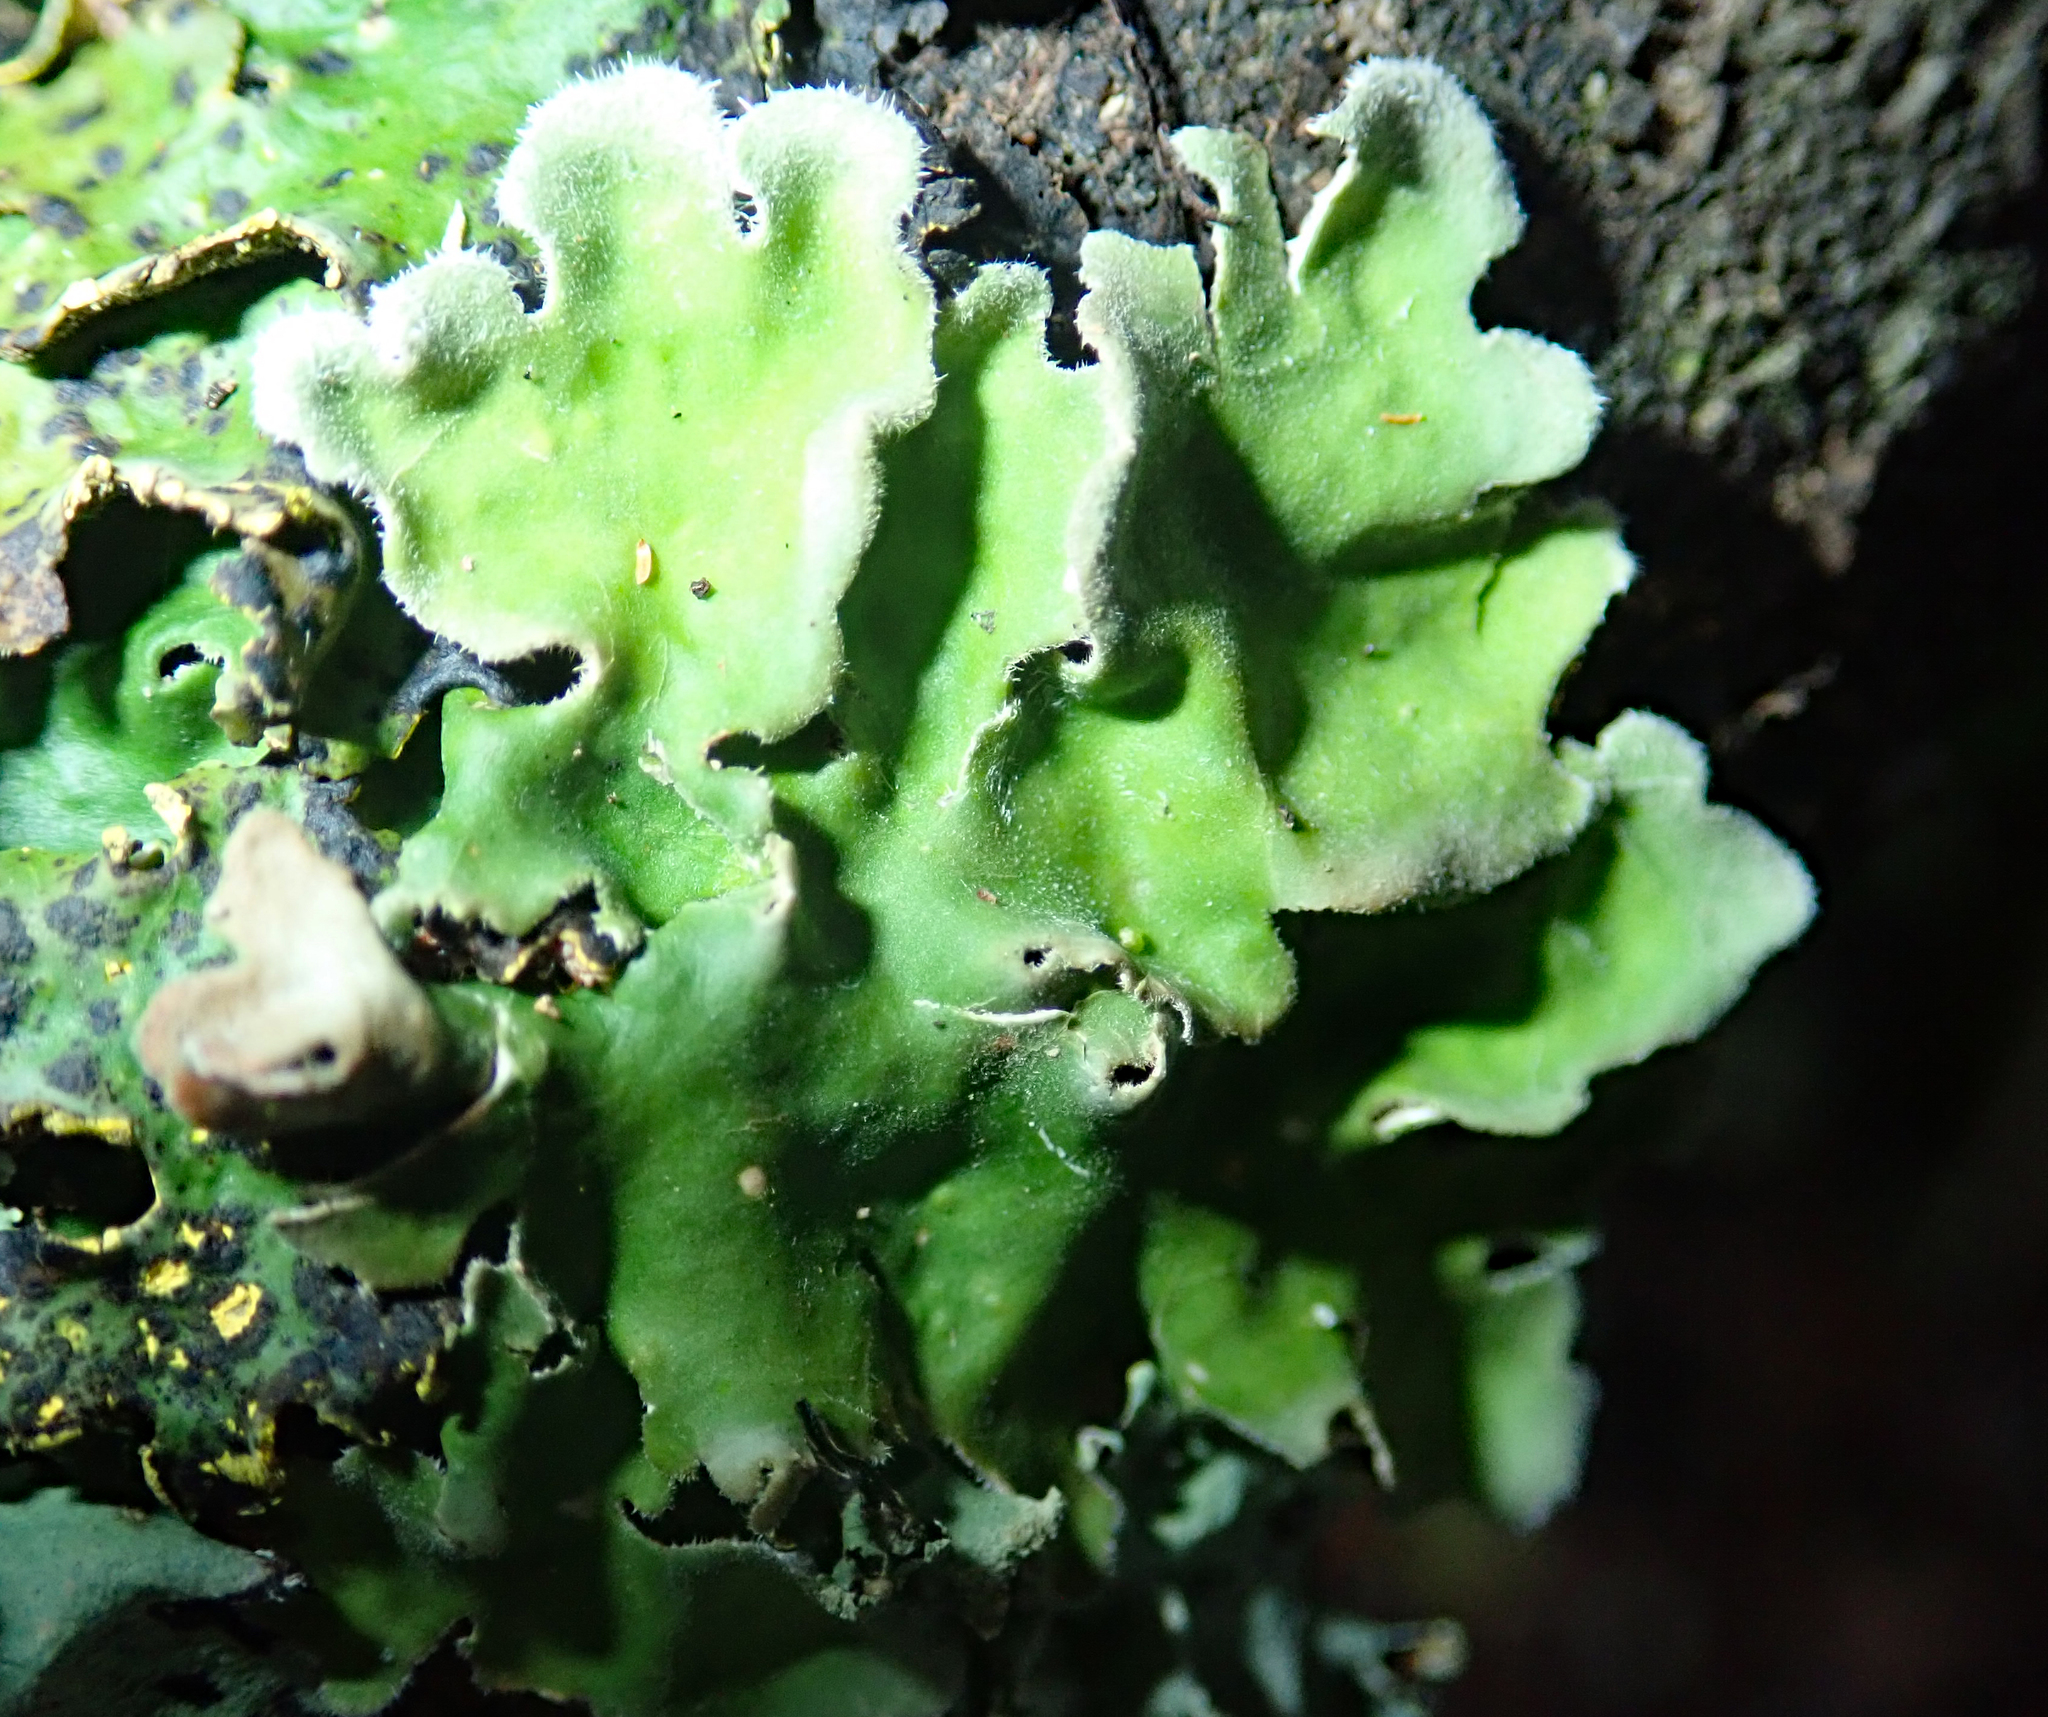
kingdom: Fungi
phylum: Ascomycota
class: Lecanoromycetes
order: Peltigerales
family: Lobariaceae
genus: Pseudocyphellaria
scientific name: Pseudocyphellaria coriacea
